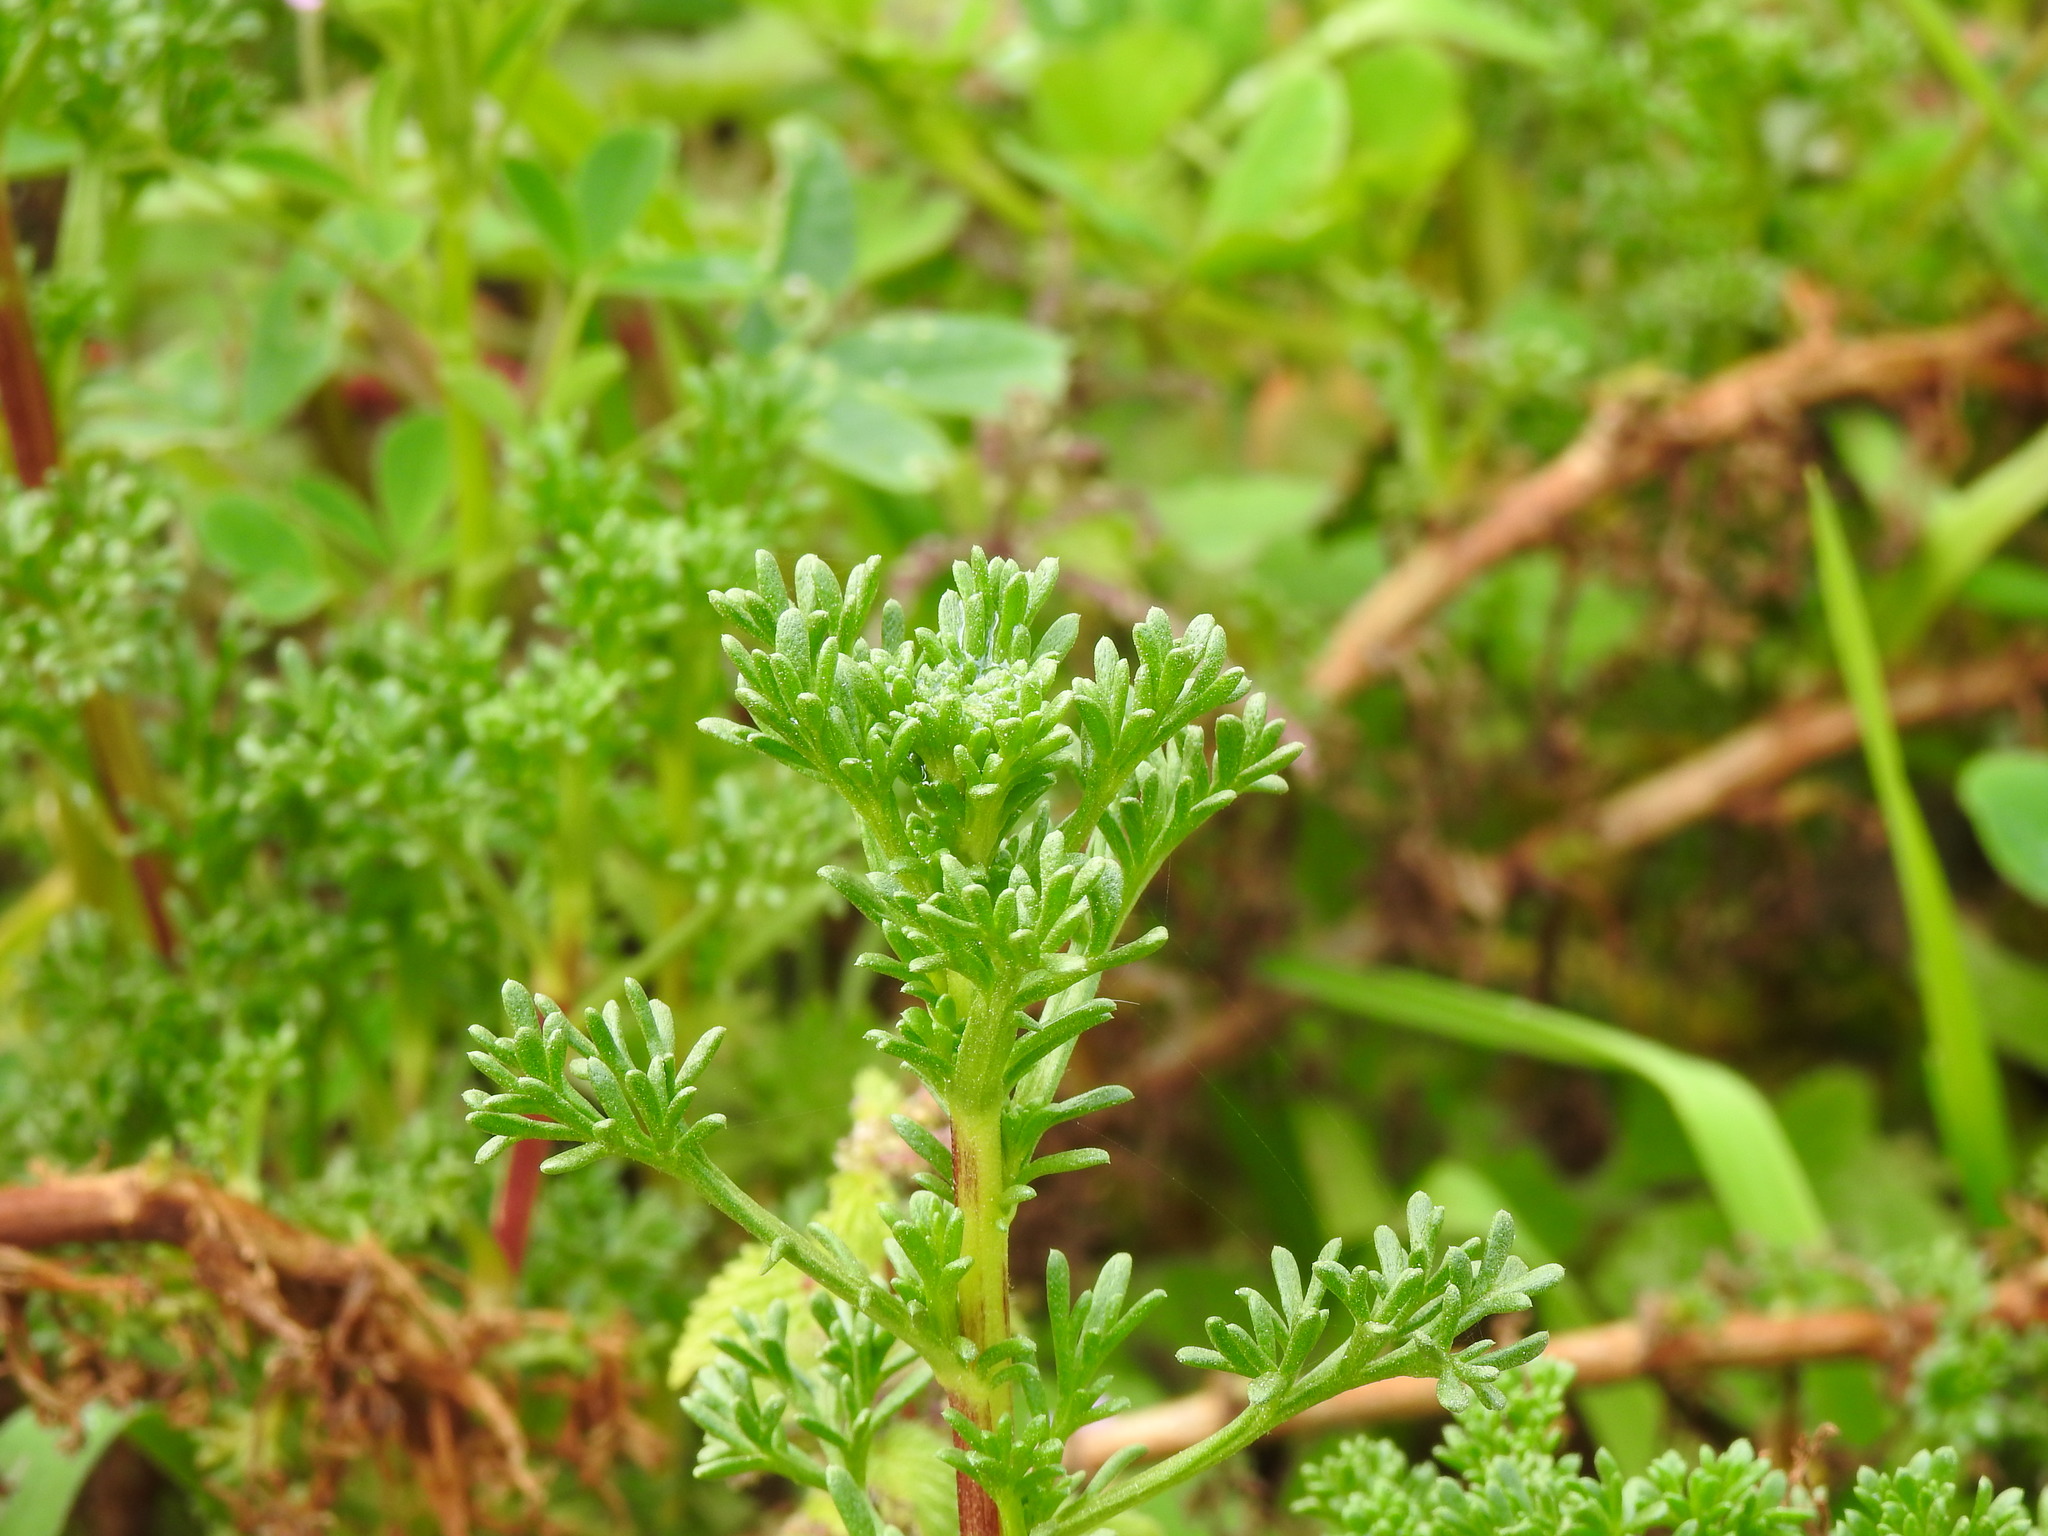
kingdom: Plantae
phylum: Tracheophyta
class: Magnoliopsida
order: Asterales
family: Asteraceae
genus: Artemisia
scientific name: Artemisia crithmifolia
